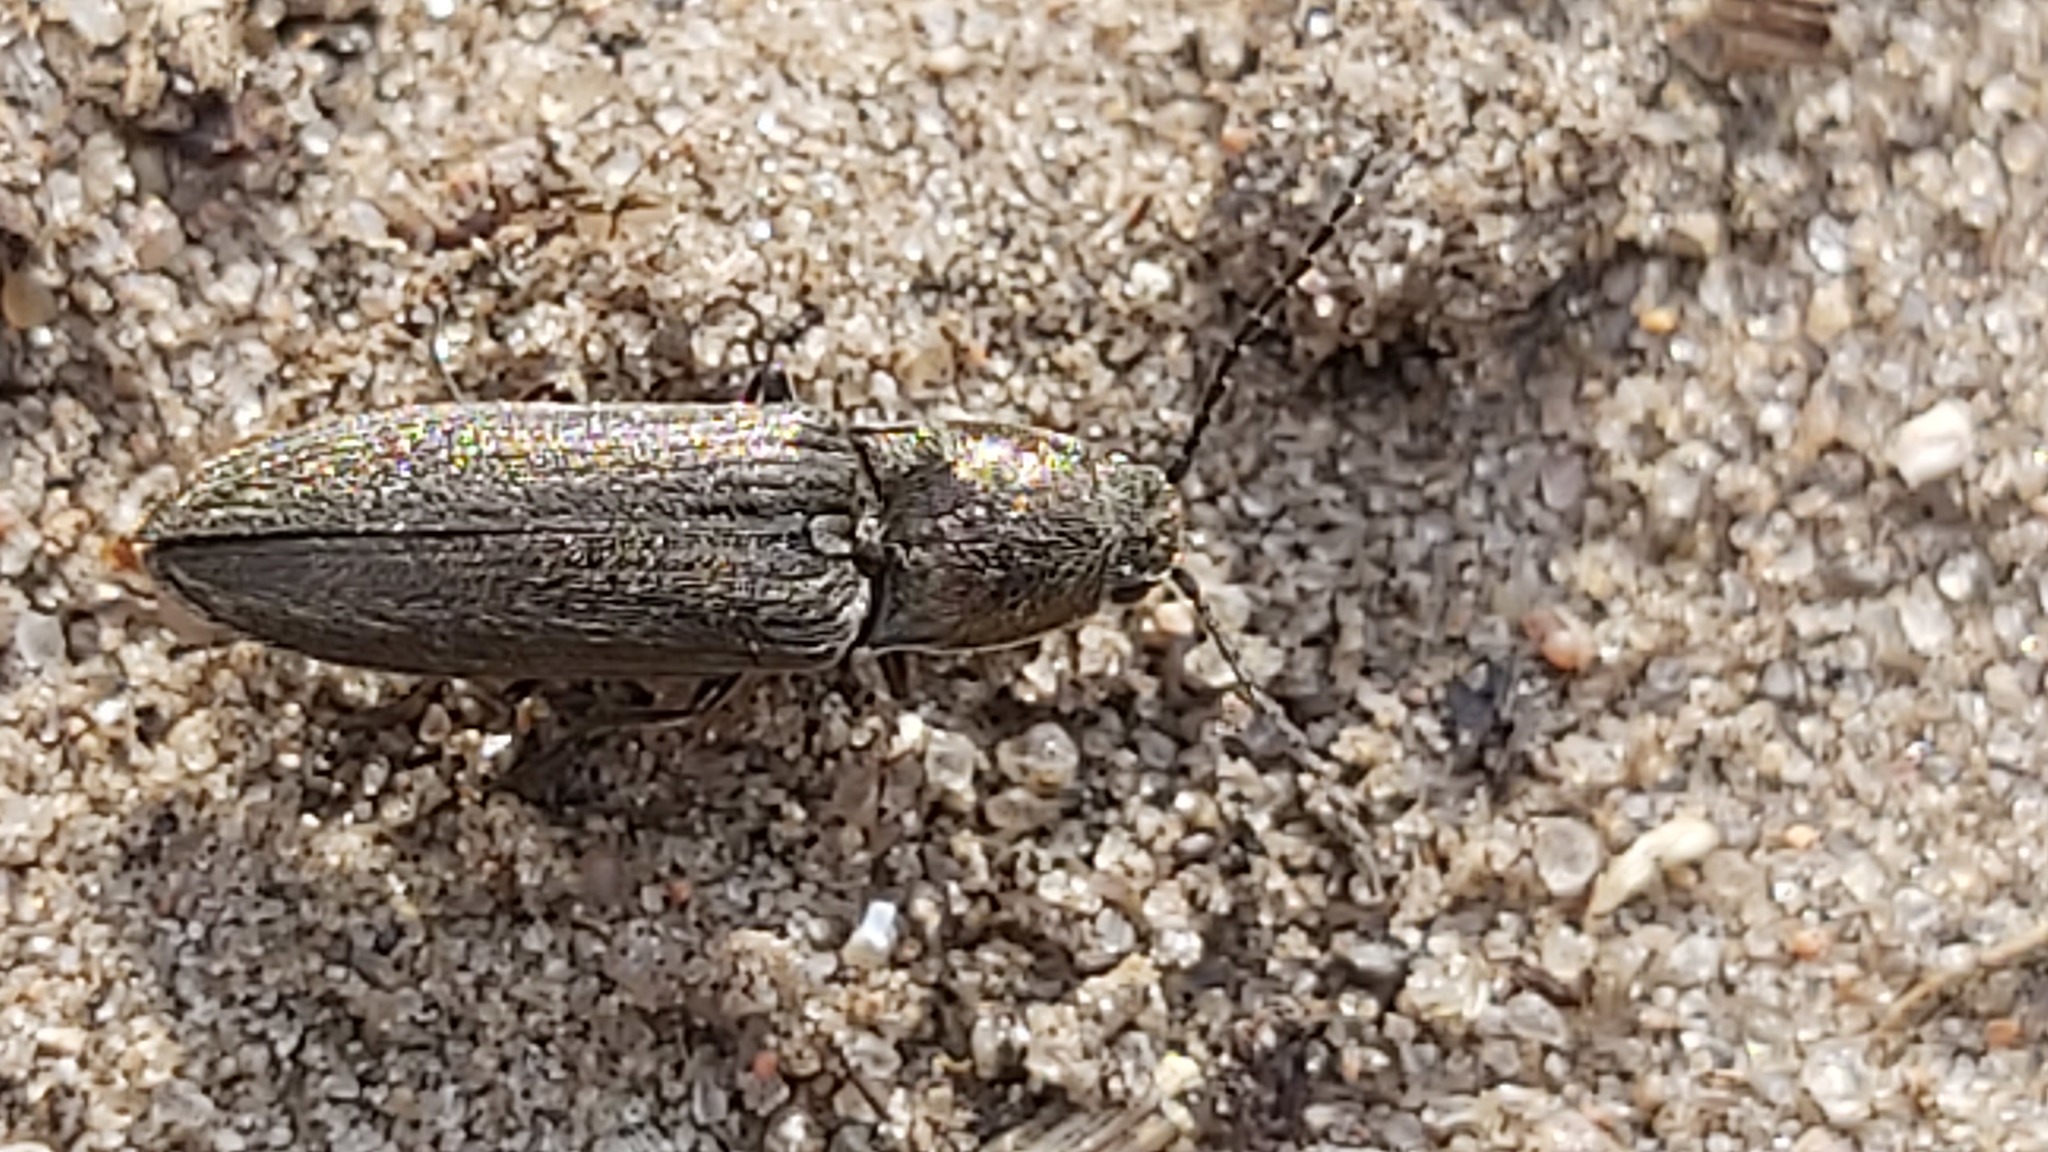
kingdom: Animalia
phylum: Arthropoda
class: Insecta
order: Coleoptera
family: Elateridae
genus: Cidnopus
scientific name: Cidnopus aeruginosus
